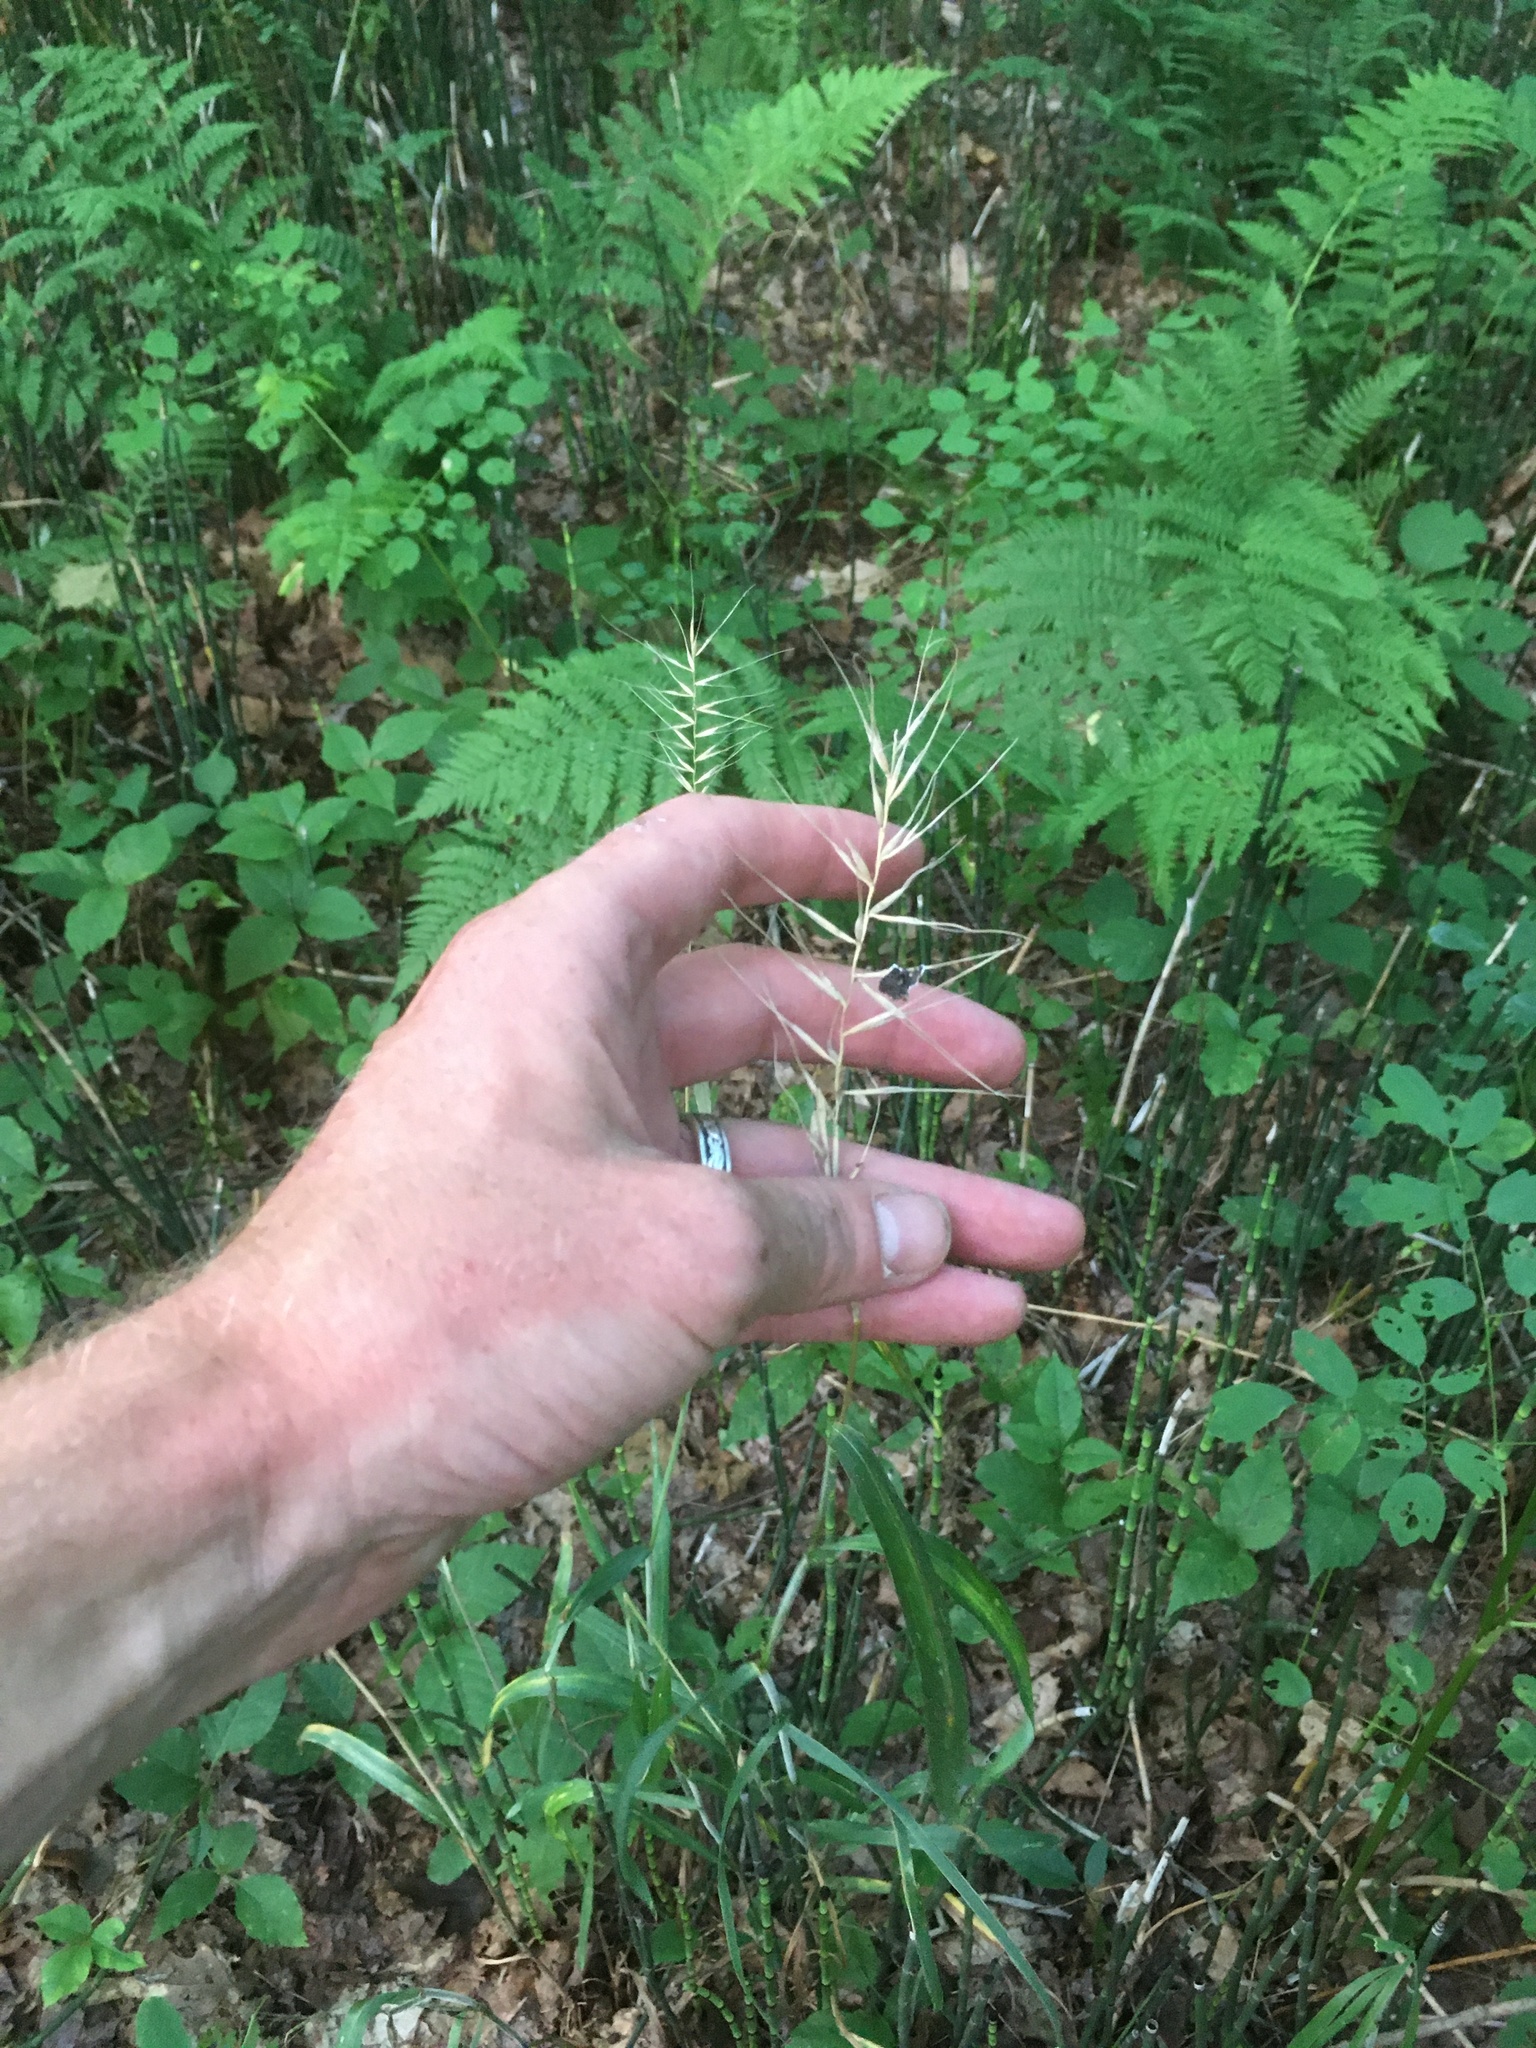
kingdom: Plantae
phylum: Tracheophyta
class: Liliopsida
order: Poales
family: Poaceae
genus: Elymus
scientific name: Elymus hystrix
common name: Bottlebrush grass
